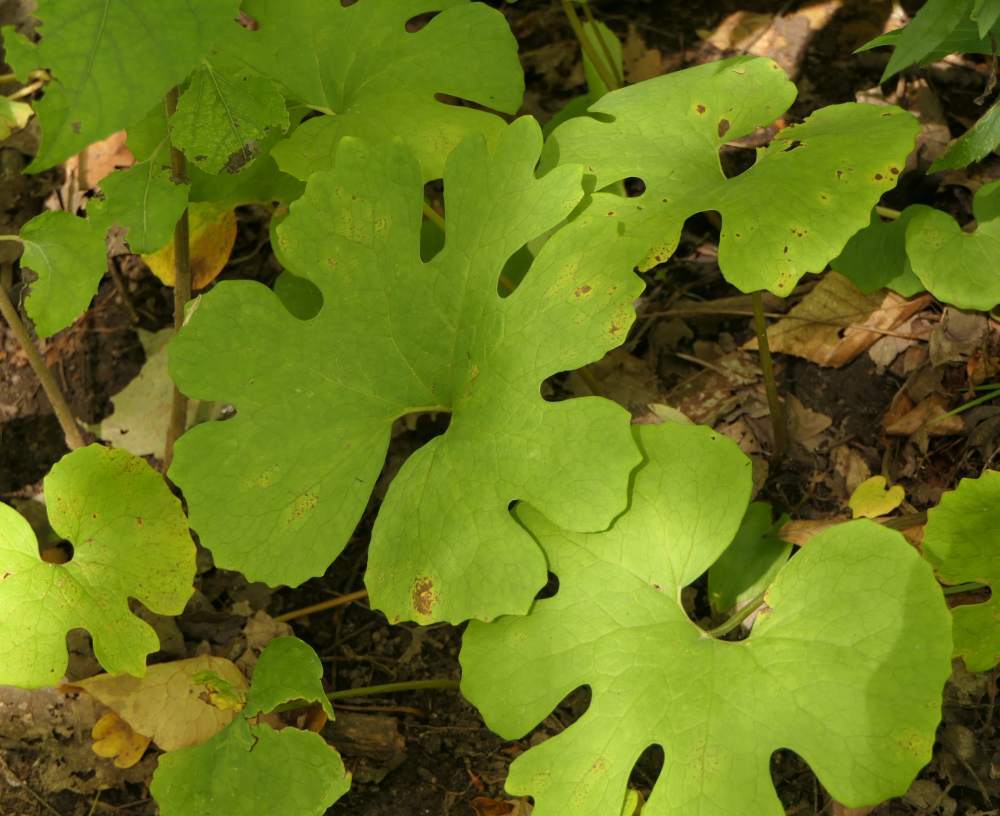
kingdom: Plantae
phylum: Tracheophyta
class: Magnoliopsida
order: Ranunculales
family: Papaveraceae
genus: Sanguinaria
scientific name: Sanguinaria canadensis
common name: Bloodroot
